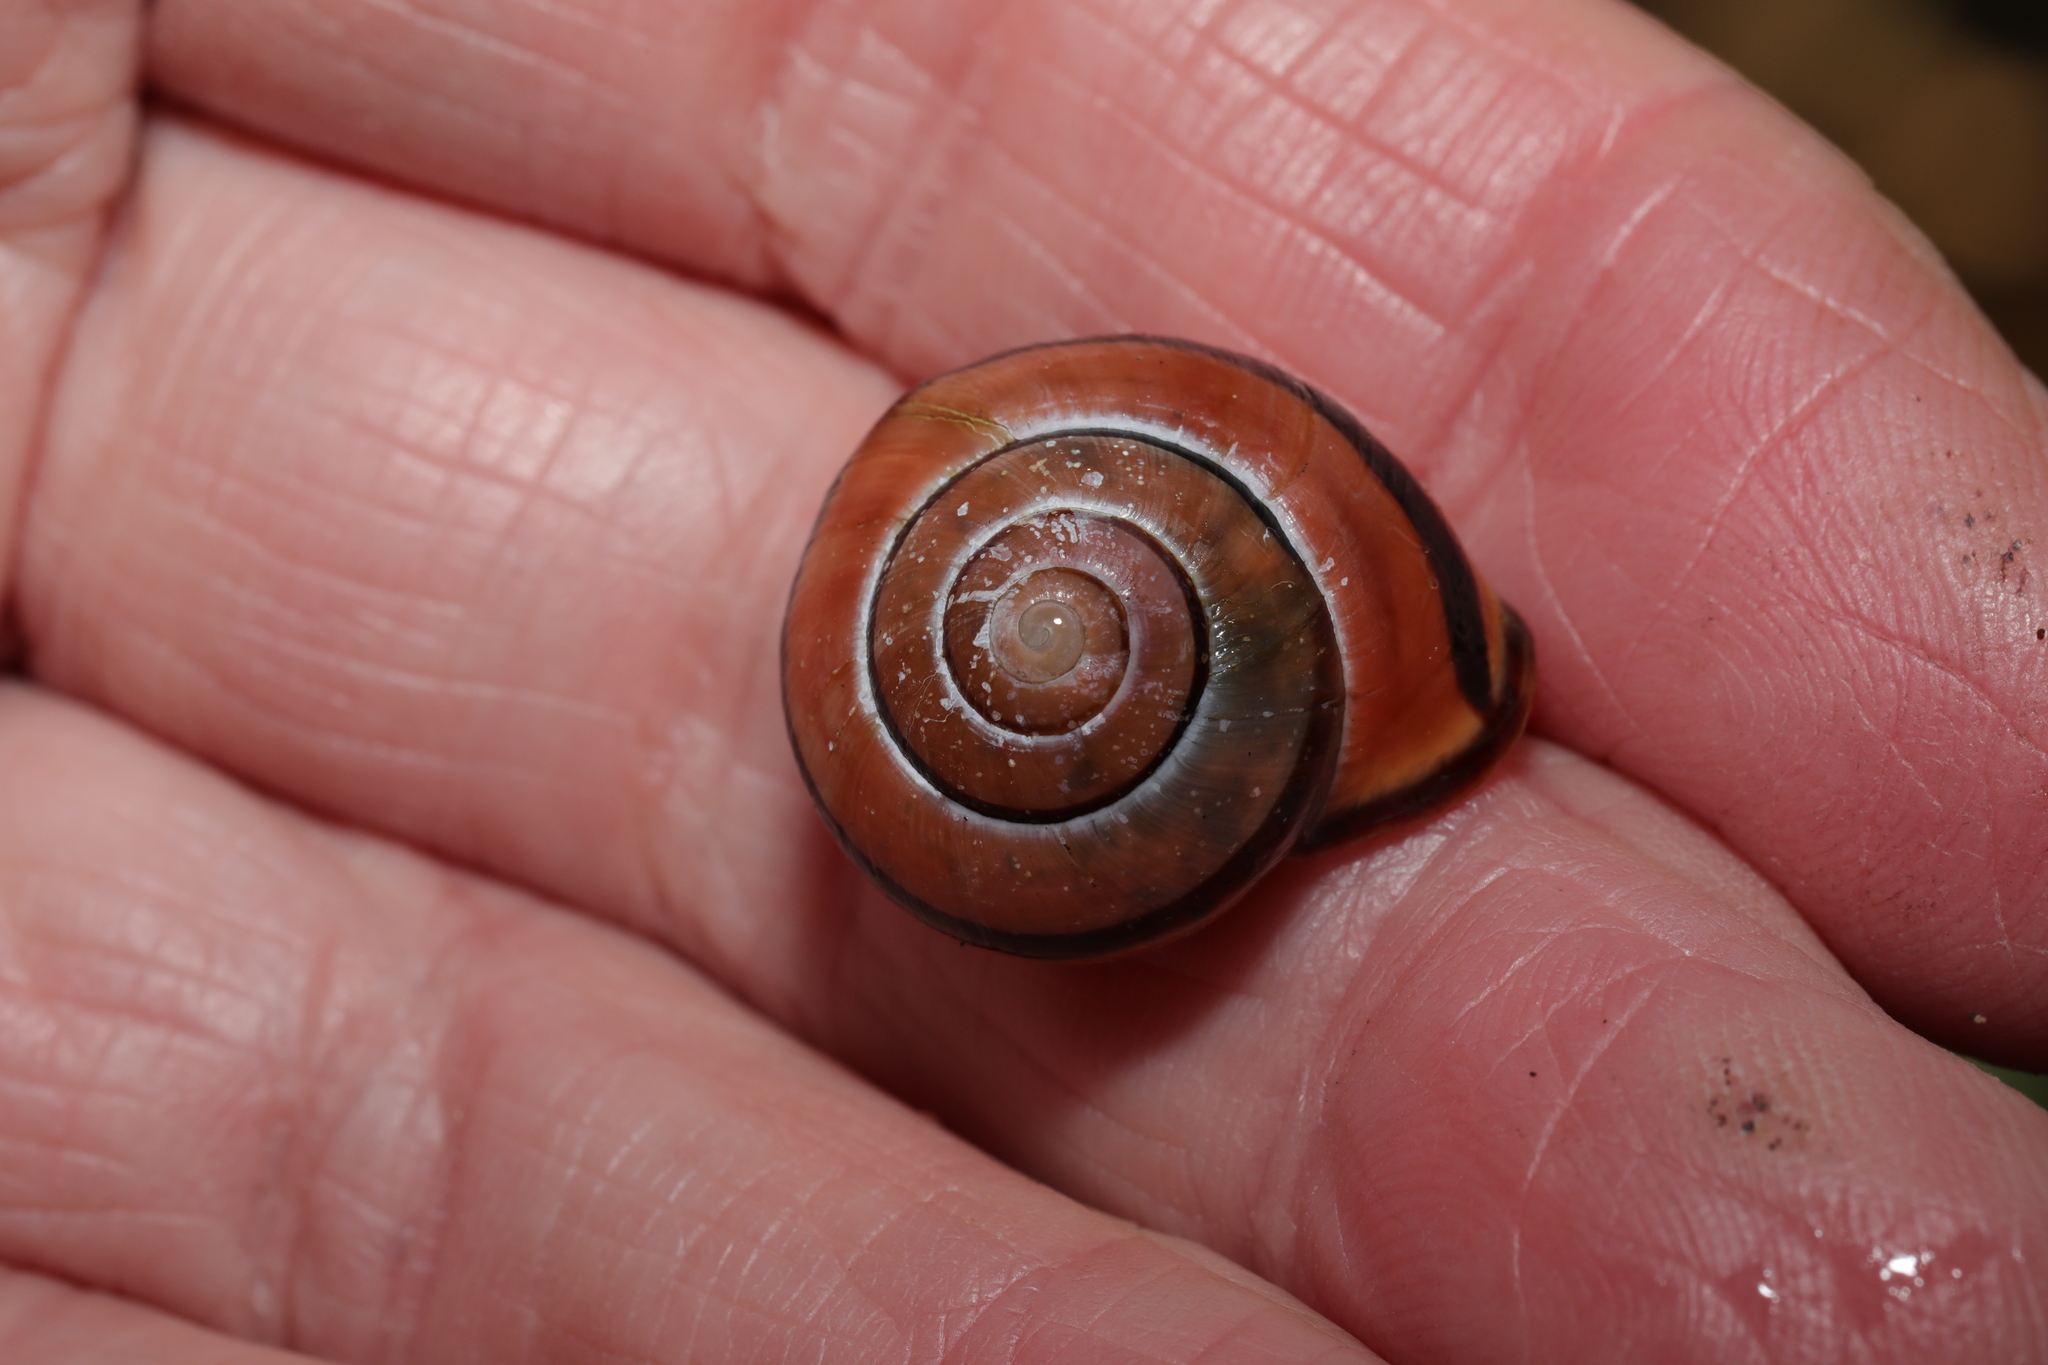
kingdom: Animalia
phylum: Mollusca
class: Gastropoda
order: Stylommatophora
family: Helicidae
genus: Cepaea
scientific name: Cepaea nemoralis
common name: Grovesnail
